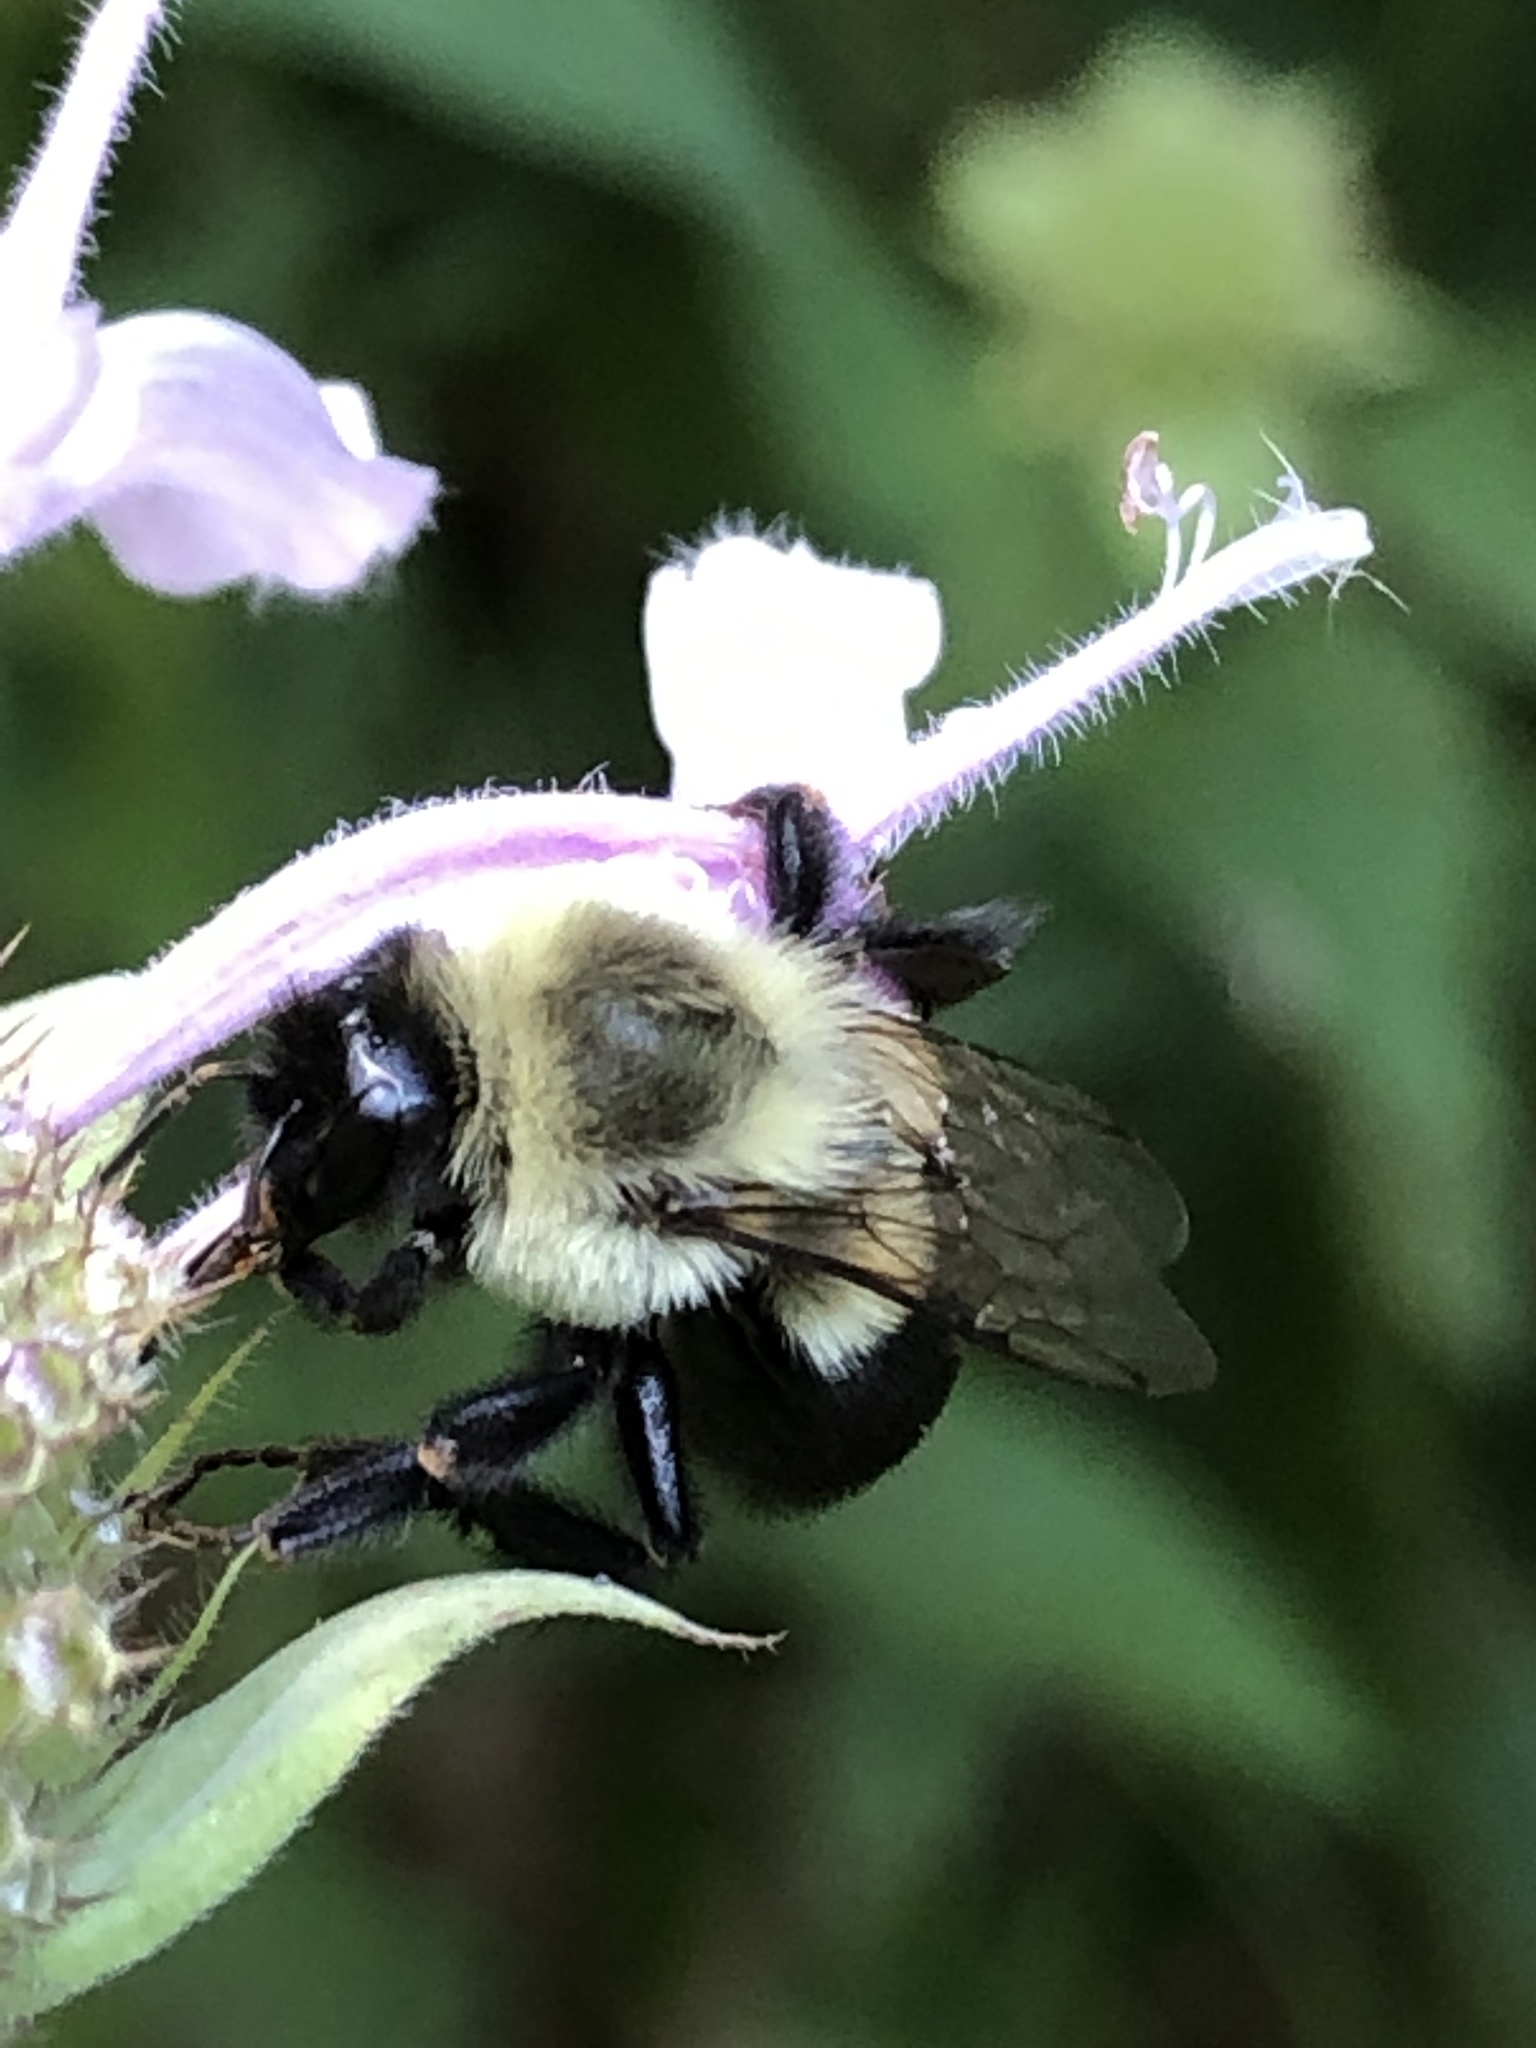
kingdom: Animalia
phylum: Arthropoda
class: Insecta
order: Hymenoptera
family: Apidae
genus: Bombus
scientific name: Bombus impatiens
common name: Common eastern bumble bee
